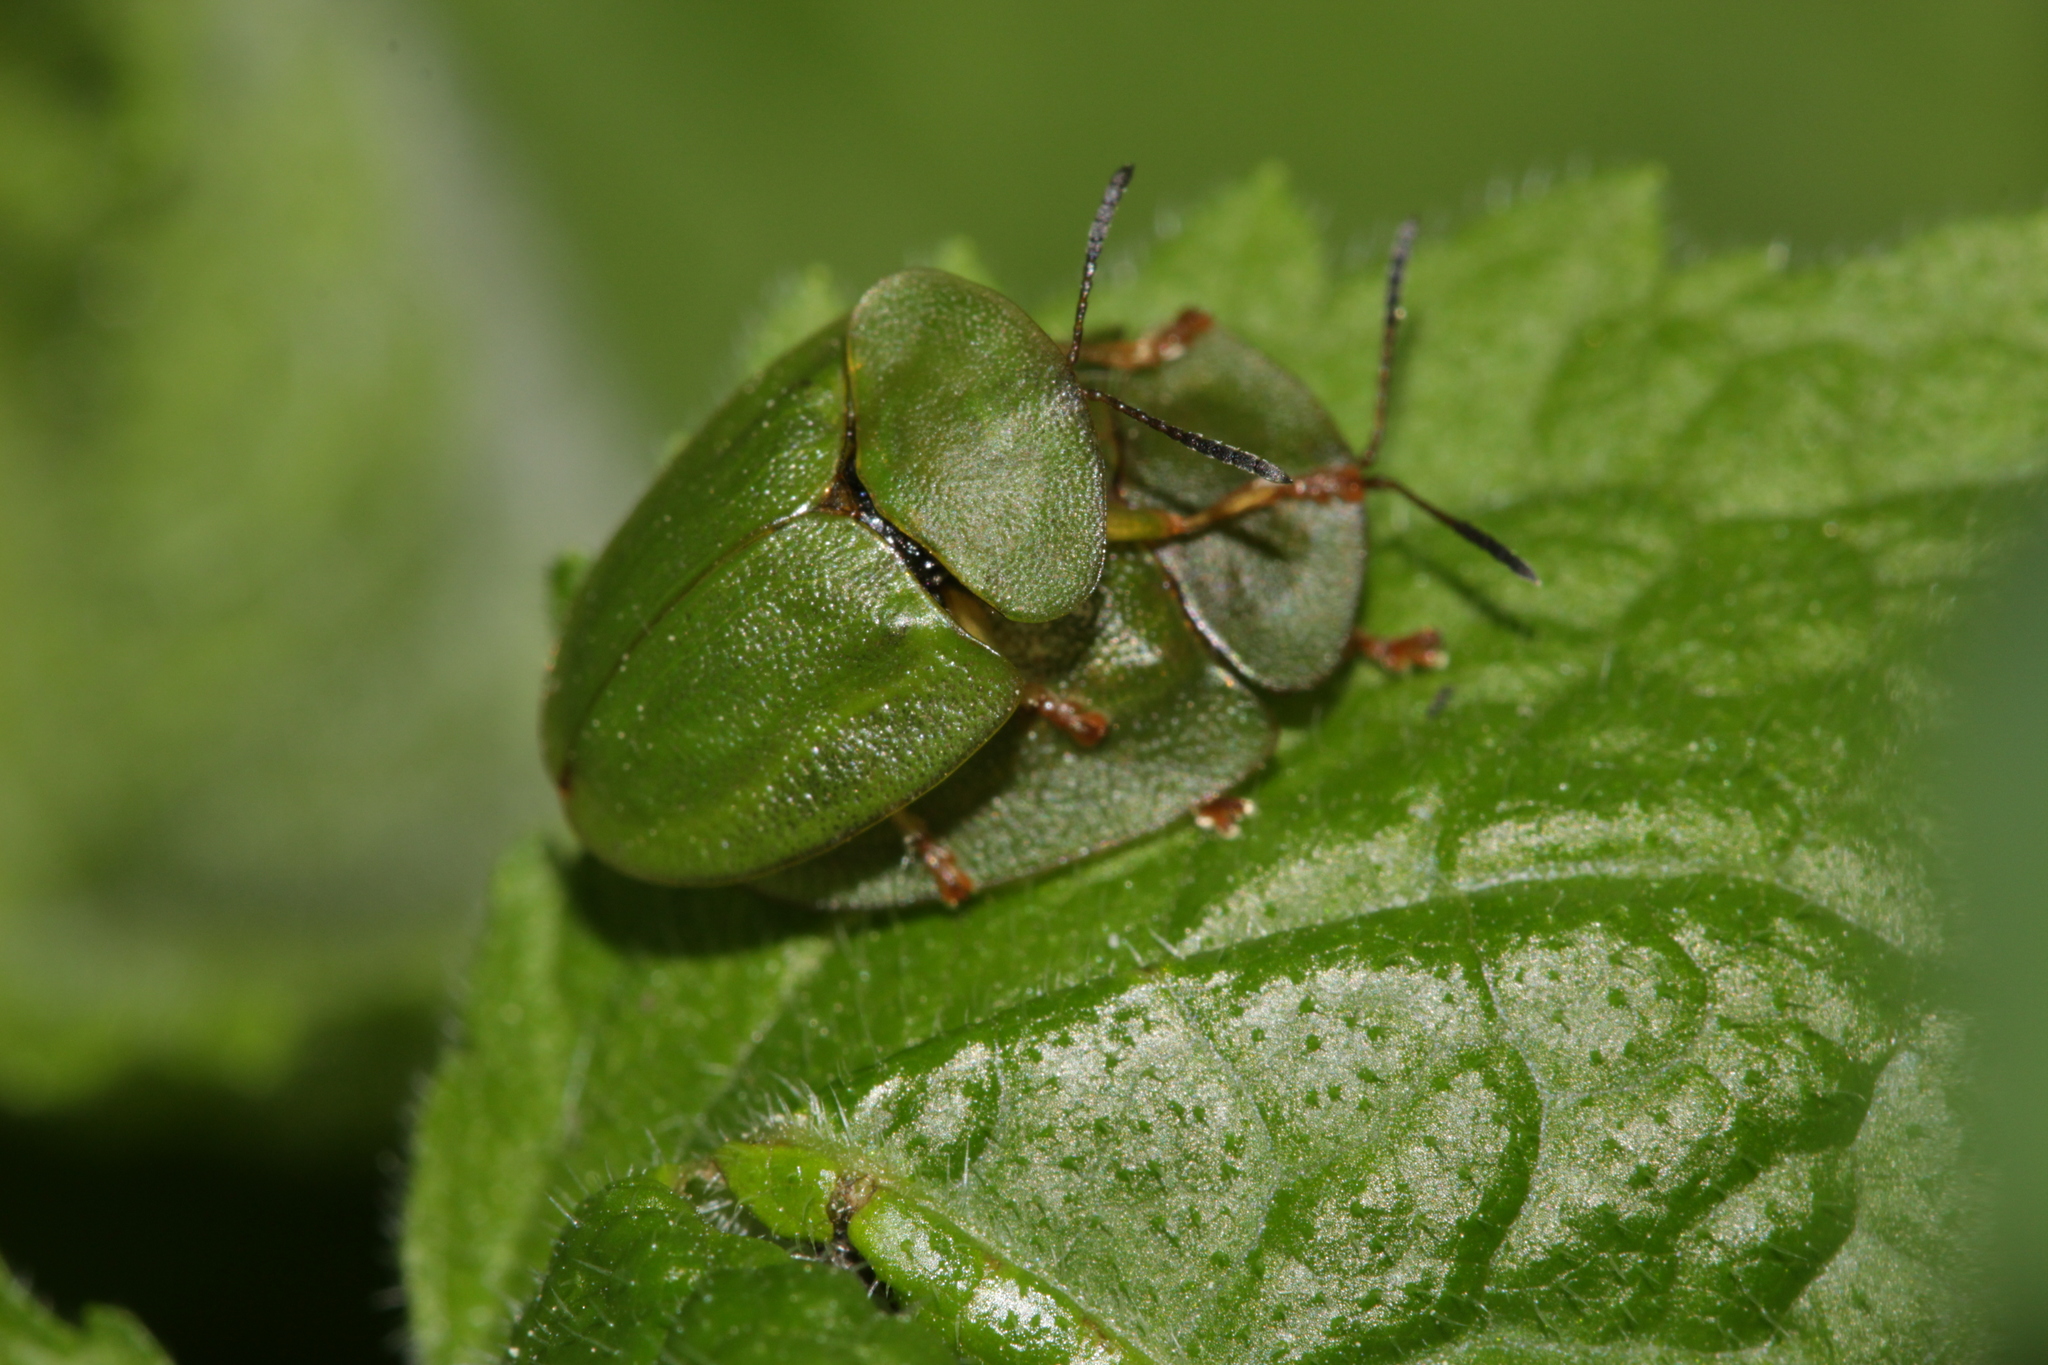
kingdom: Animalia
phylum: Arthropoda
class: Insecta
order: Coleoptera
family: Chrysomelidae
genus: Cassida
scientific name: Cassida viridis
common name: Green tortoise beetle
